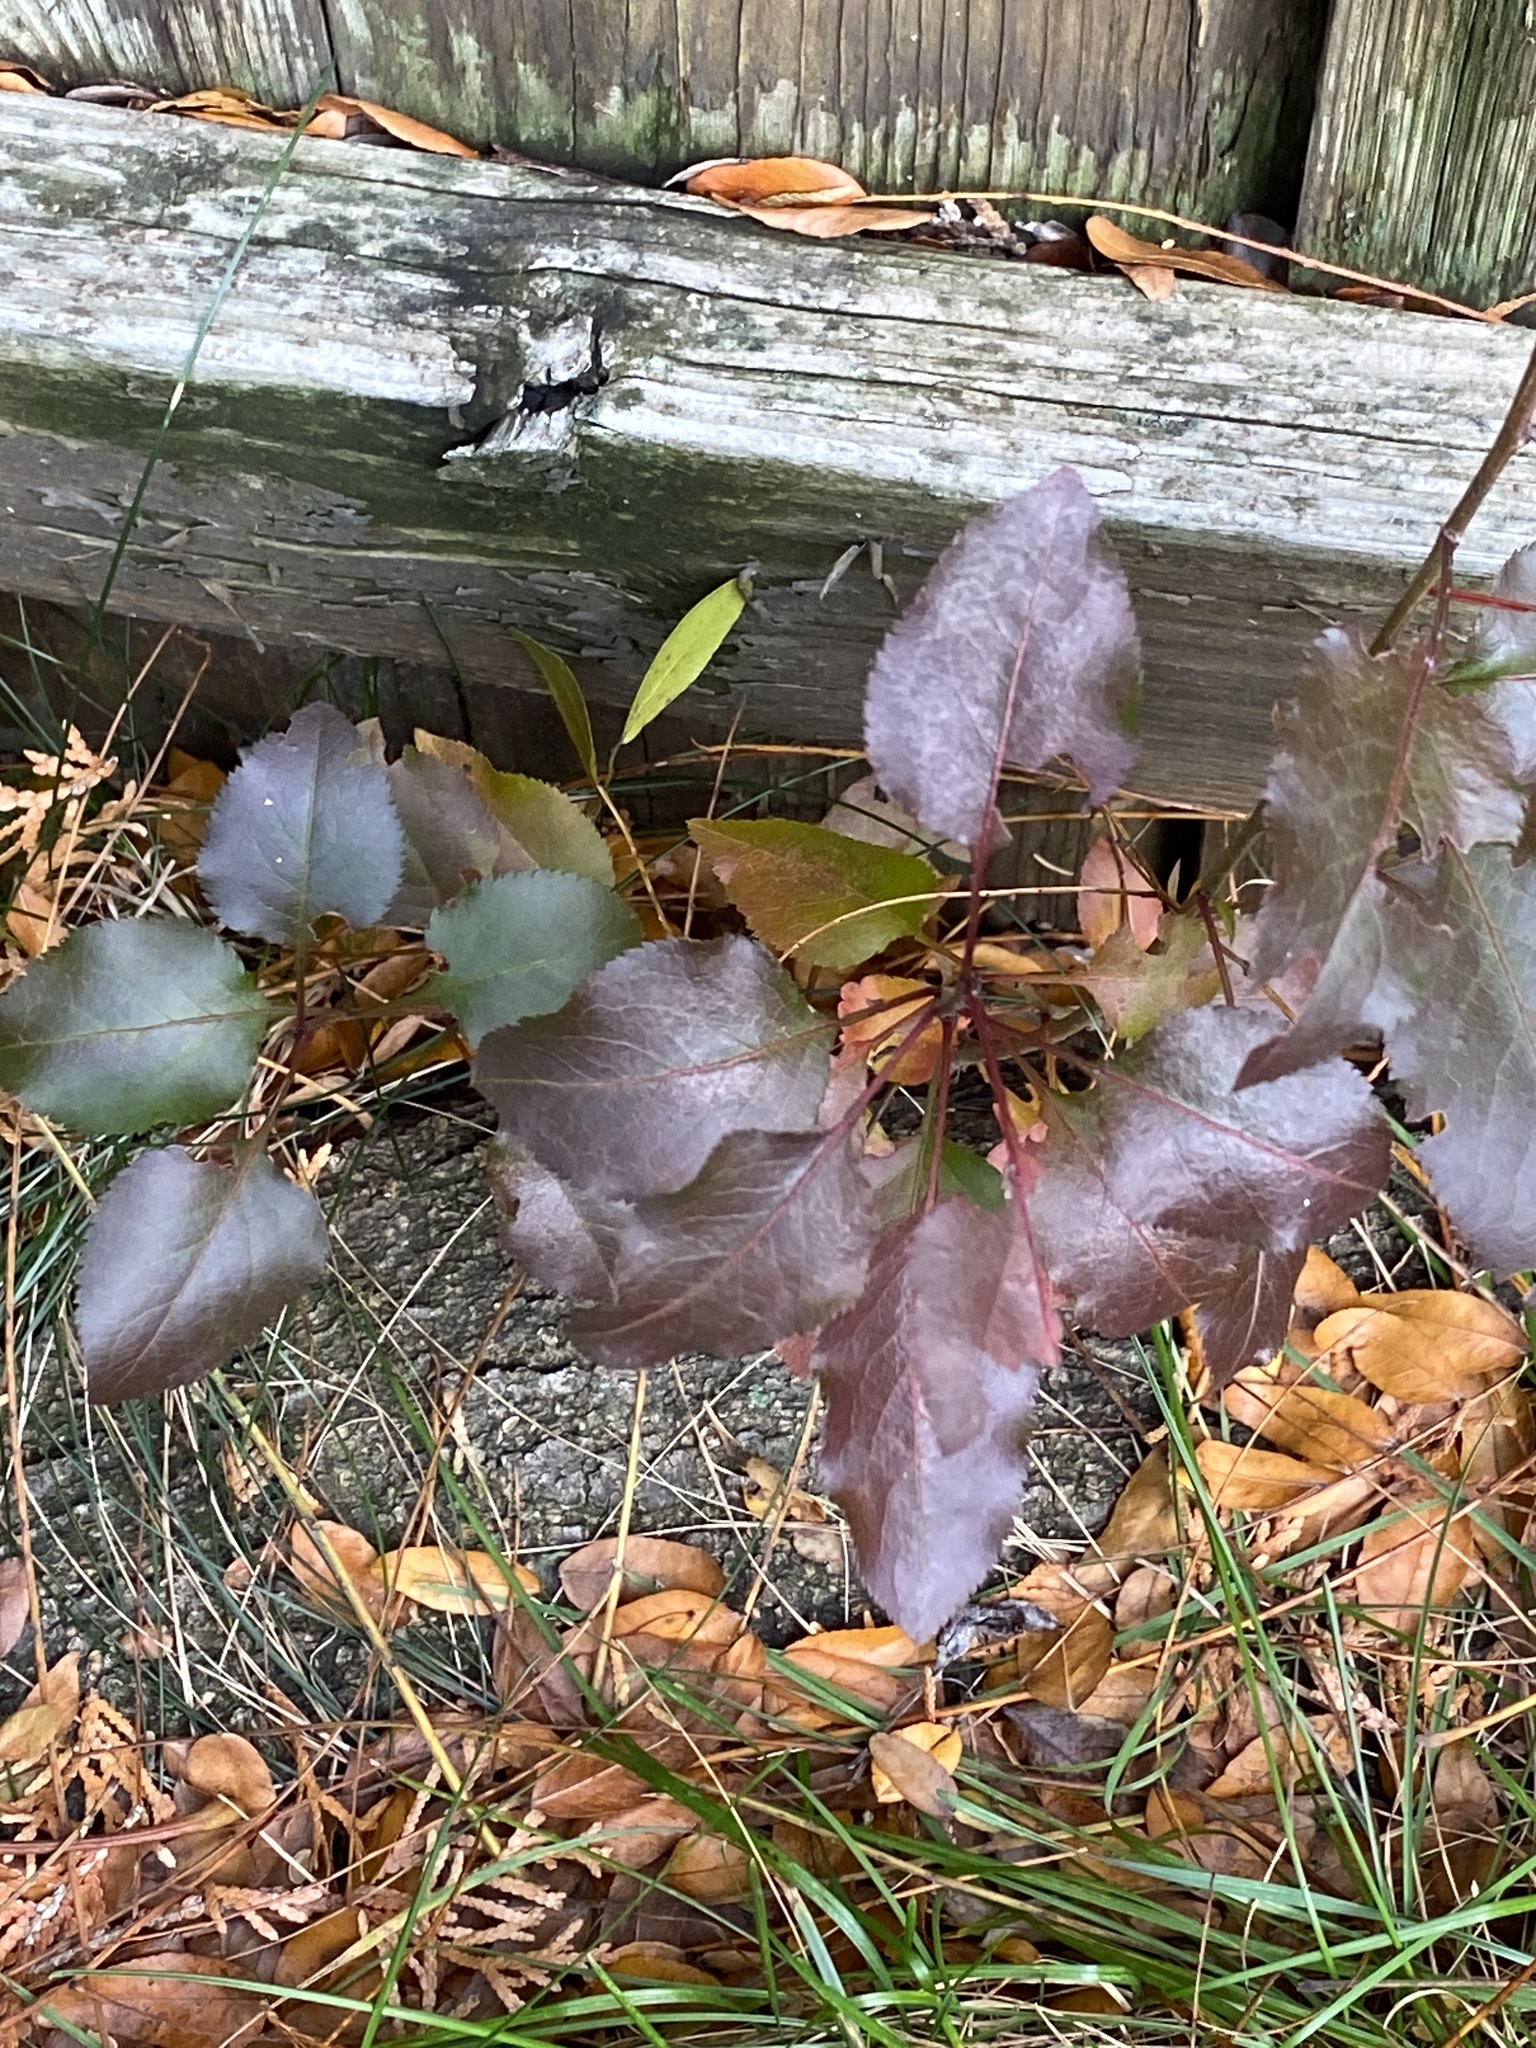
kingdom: Plantae
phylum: Tracheophyta
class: Magnoliopsida
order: Rosales
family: Rosaceae
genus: Pyrus
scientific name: Pyrus calleryana
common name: Callery pear
